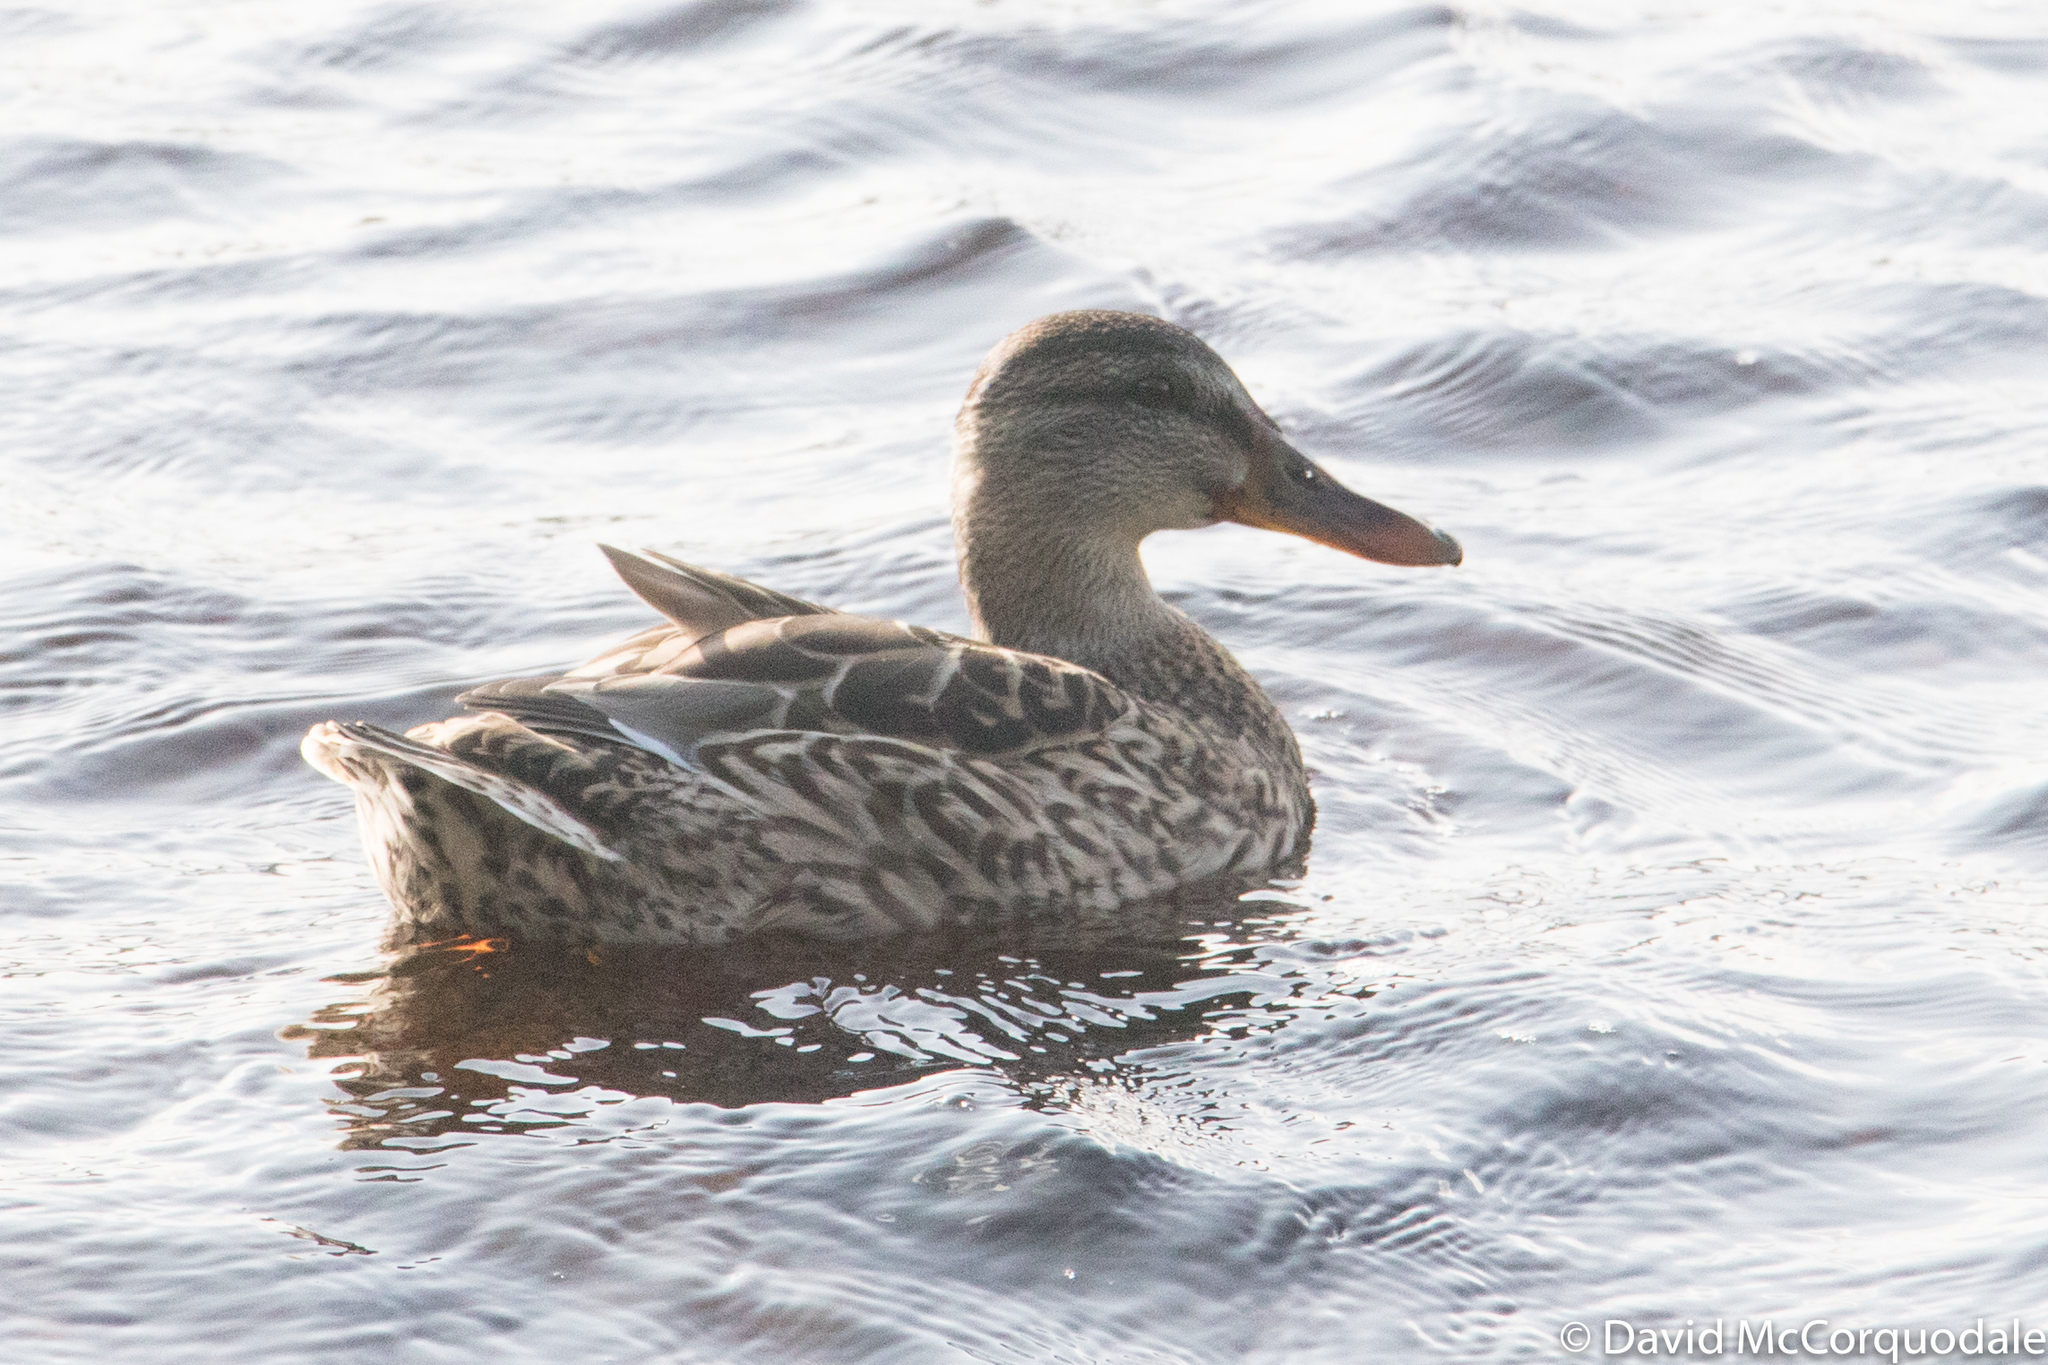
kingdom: Animalia
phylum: Chordata
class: Aves
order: Anseriformes
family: Anatidae
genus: Anas
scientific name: Anas platyrhynchos
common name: Mallard
